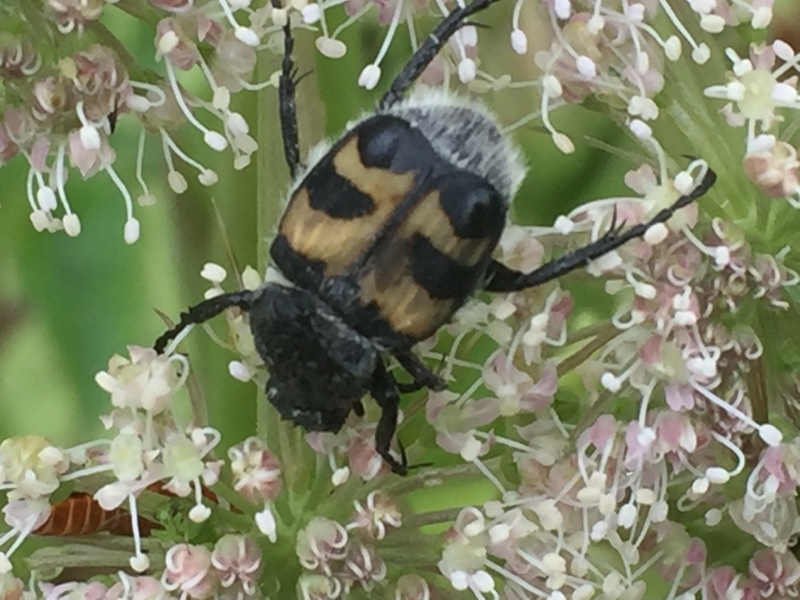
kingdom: Animalia
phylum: Arthropoda
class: Insecta
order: Coleoptera
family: Scarabaeidae
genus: Trichius
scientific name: Trichius fasciatus
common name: Bee beetle
